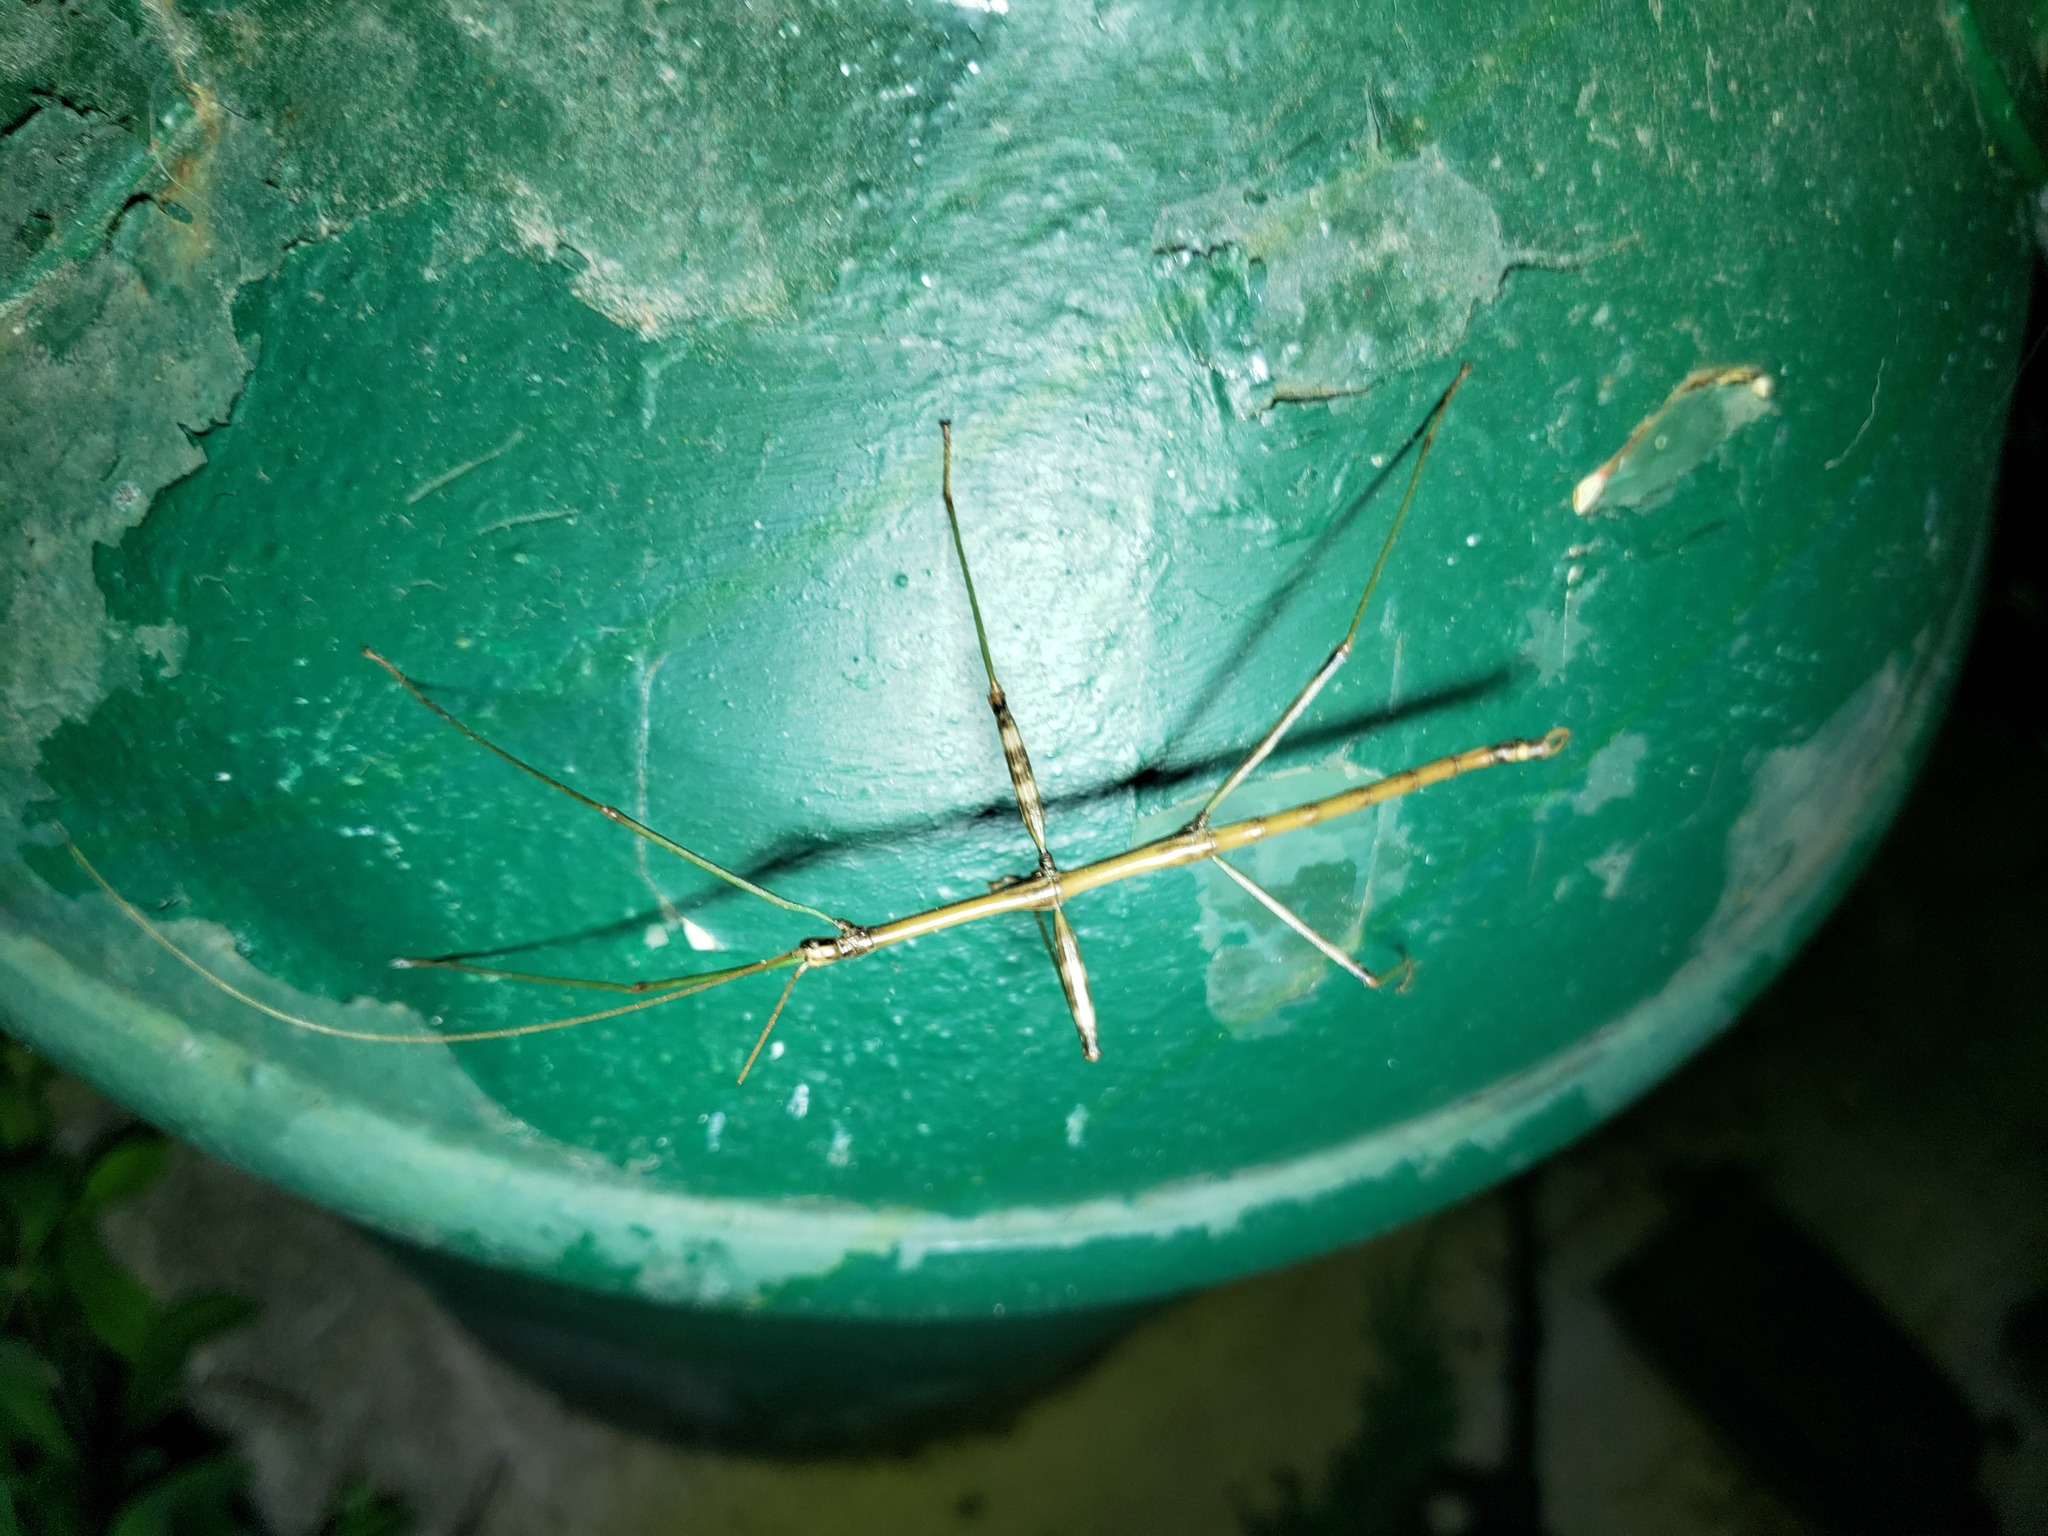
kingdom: Animalia
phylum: Arthropoda
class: Insecta
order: Phasmida
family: Diapheromeridae
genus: Diapheromera
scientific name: Diapheromera femorata
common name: Common american walkingstick
